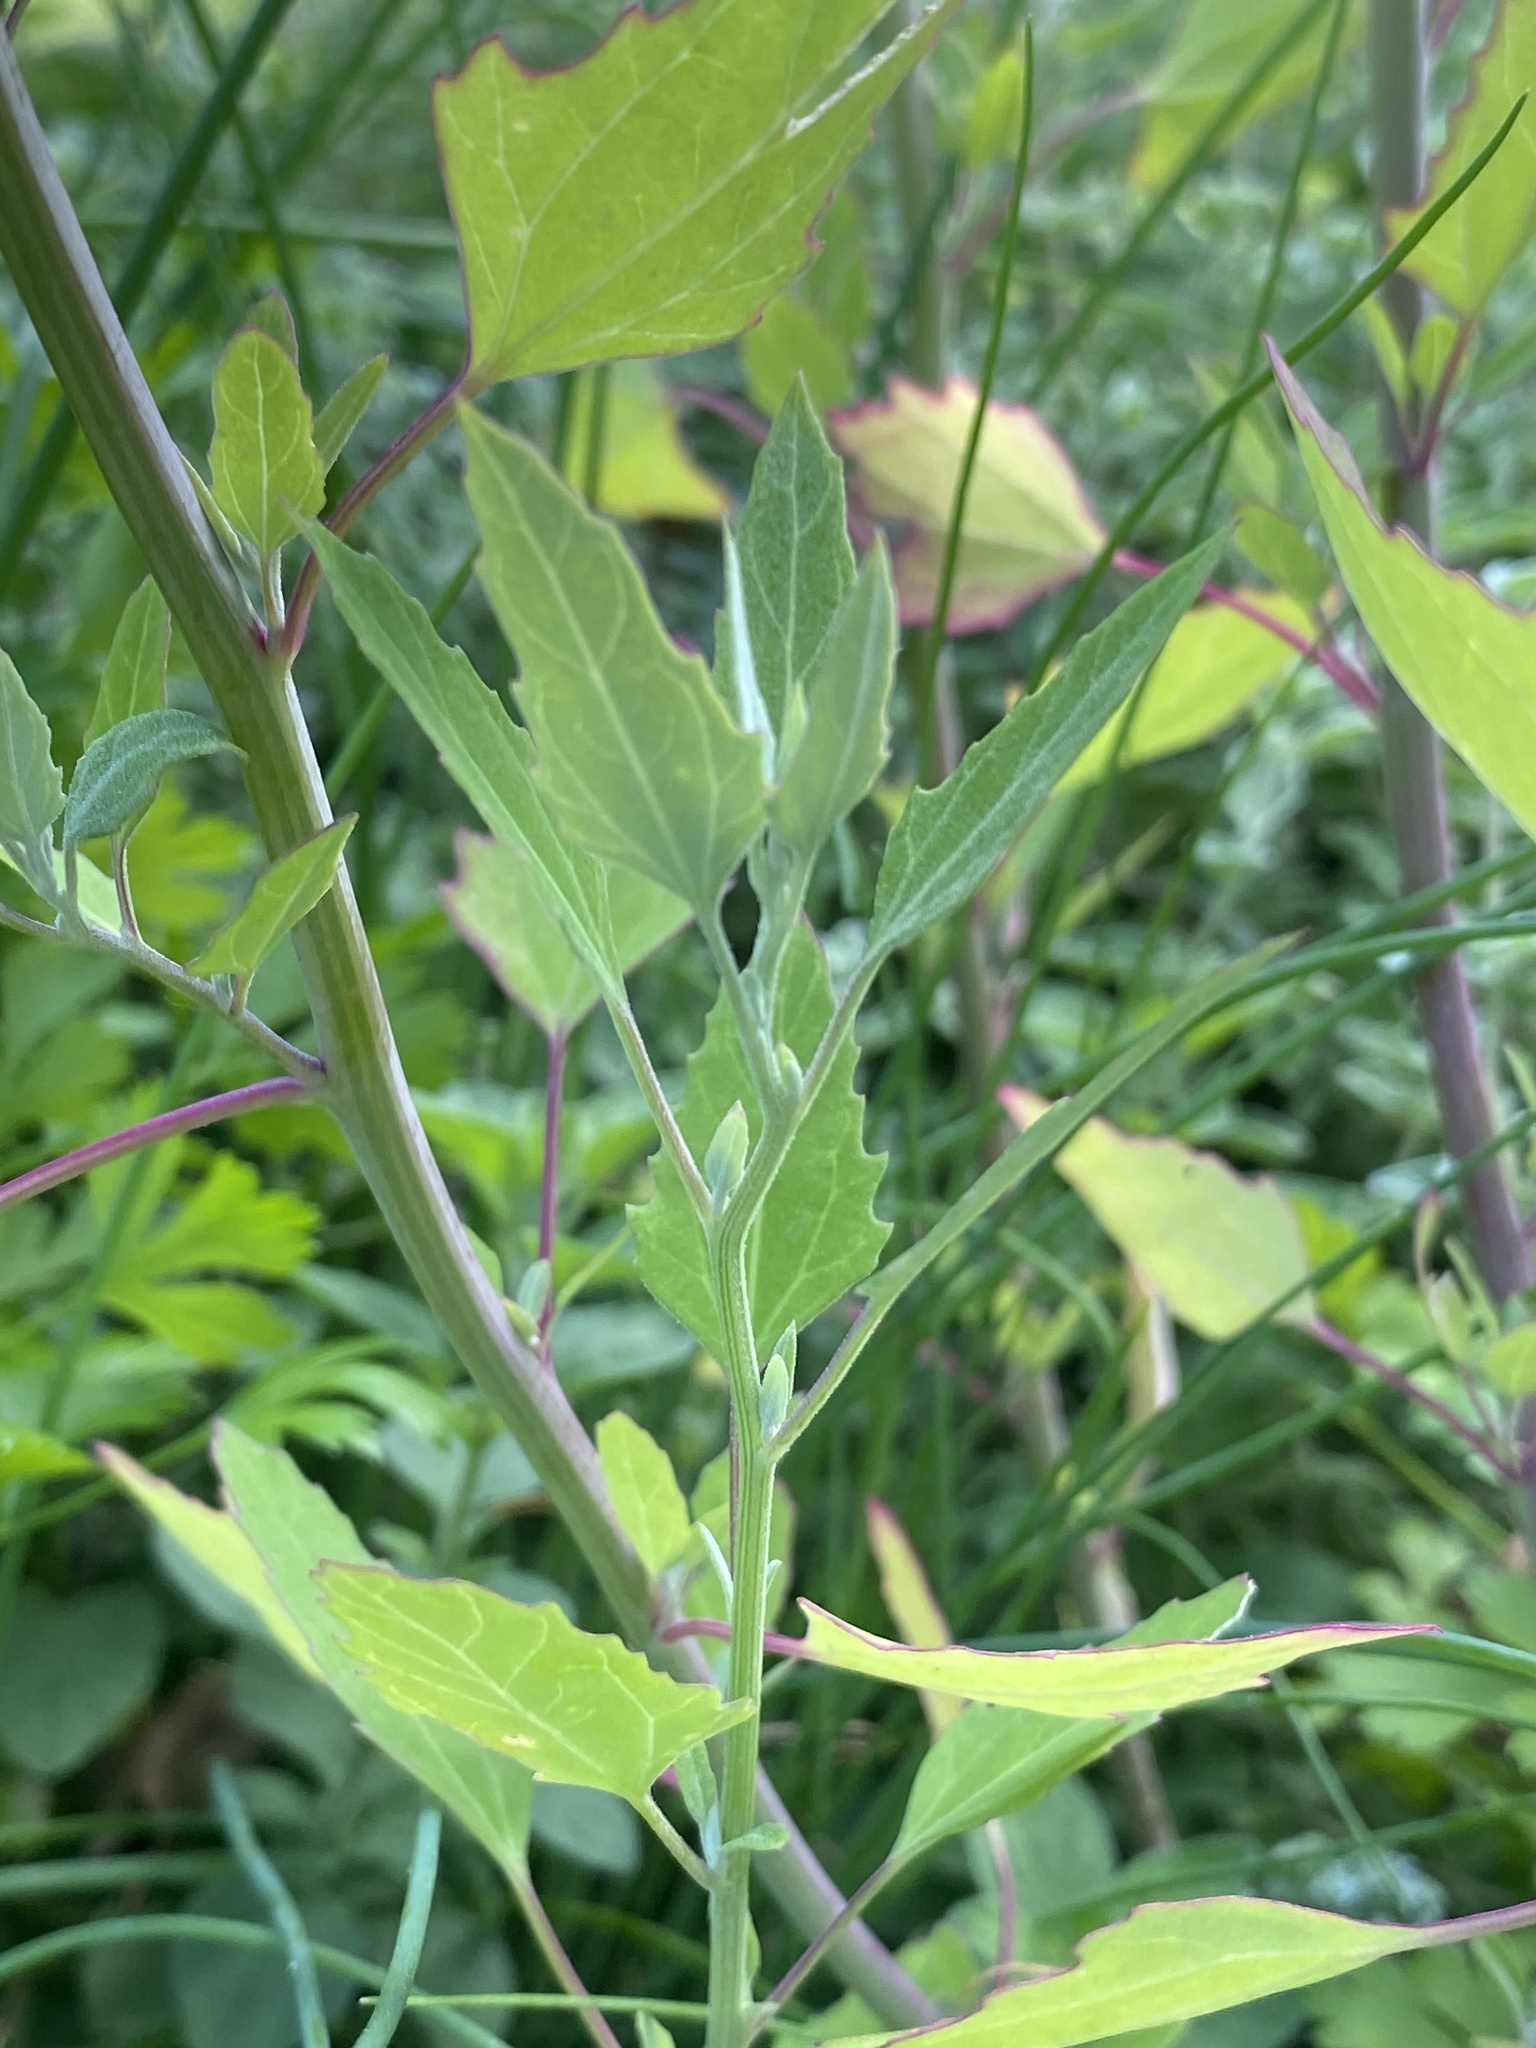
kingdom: Plantae
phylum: Tracheophyta
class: Magnoliopsida
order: Caryophyllales
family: Amaranthaceae
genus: Chenopodium
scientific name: Chenopodium album
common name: Fat-hen
